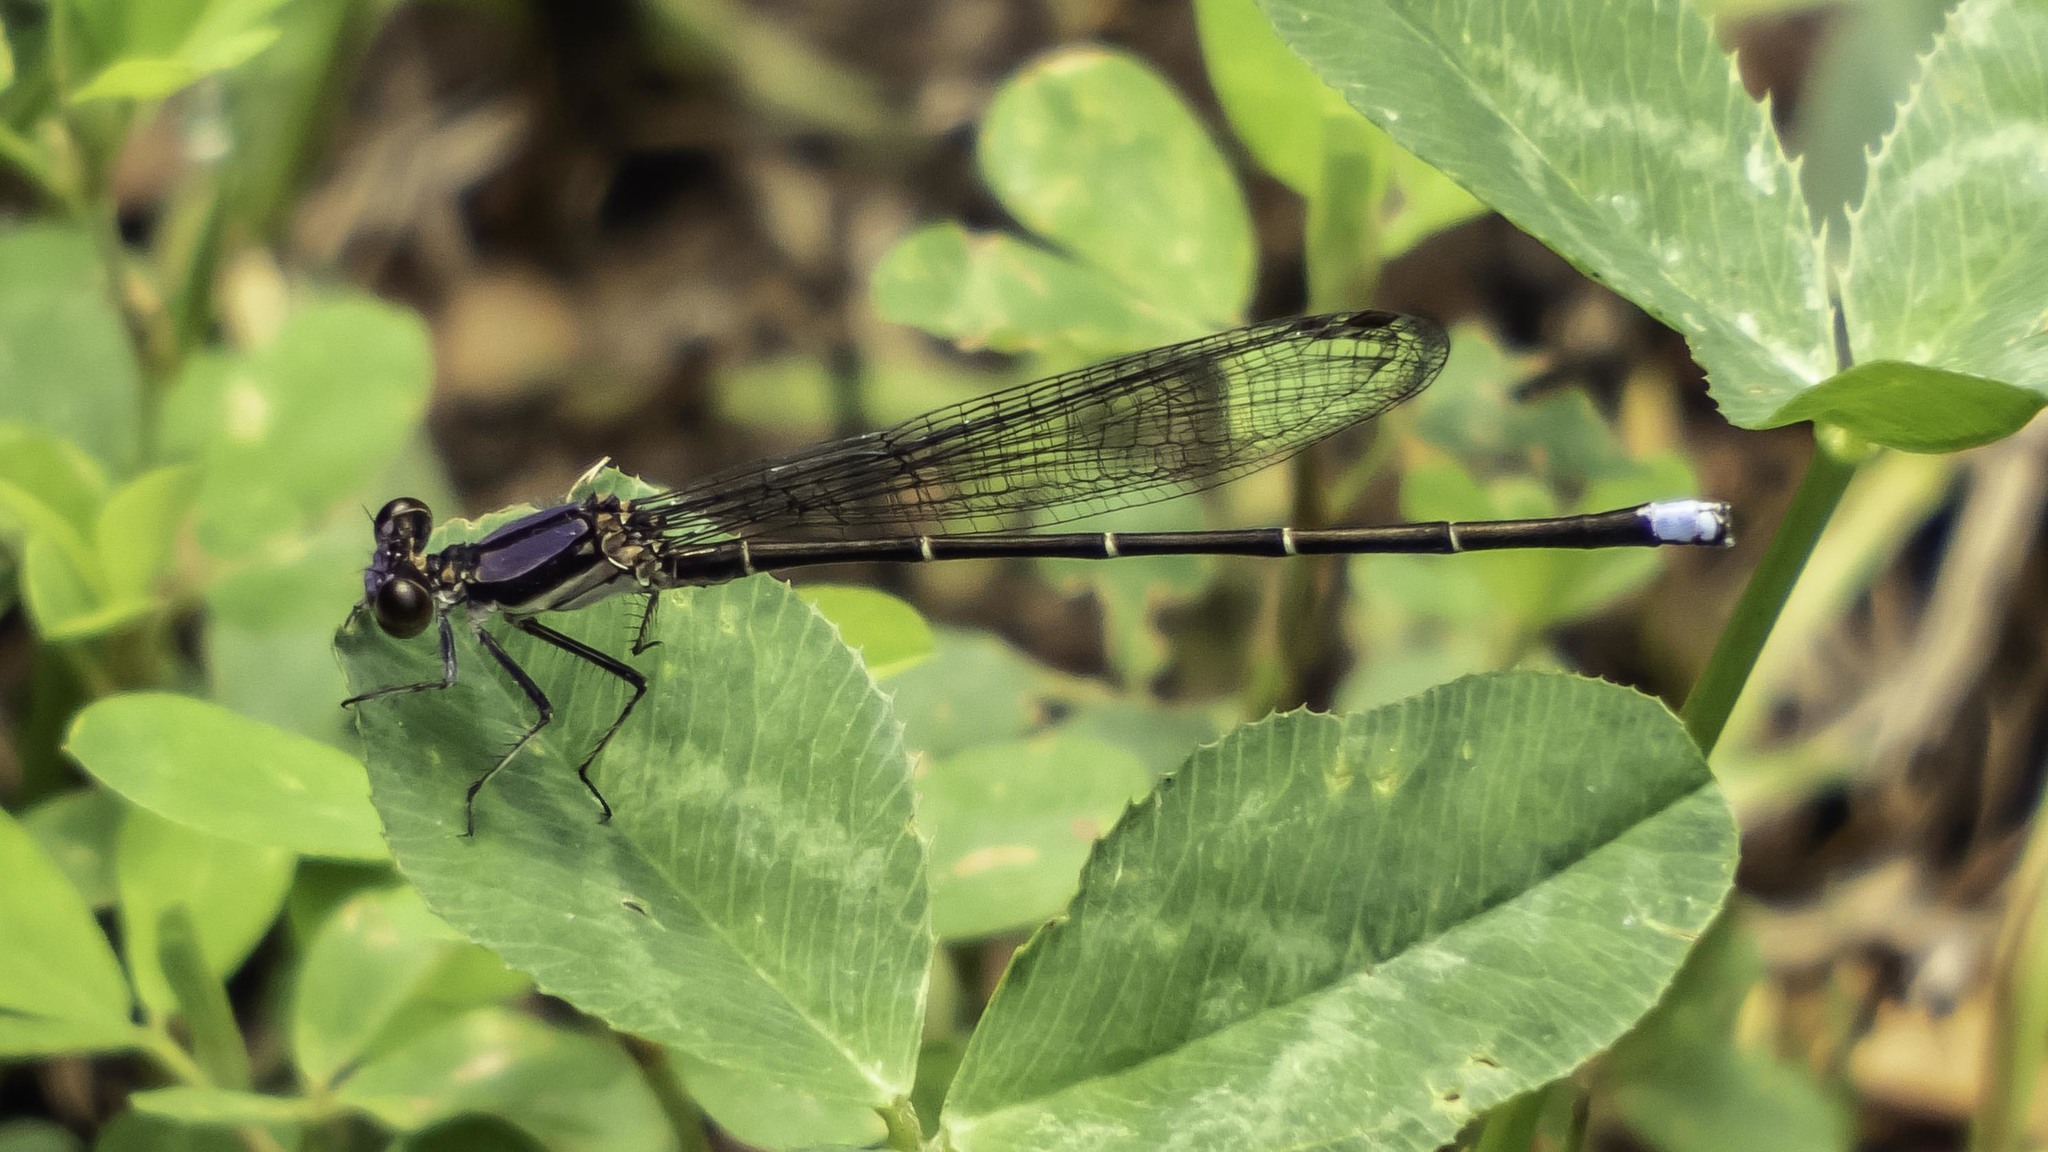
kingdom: Animalia
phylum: Arthropoda
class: Insecta
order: Odonata
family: Coenagrionidae
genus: Argia
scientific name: Argia tibialis
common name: Blue-tipped dancer
